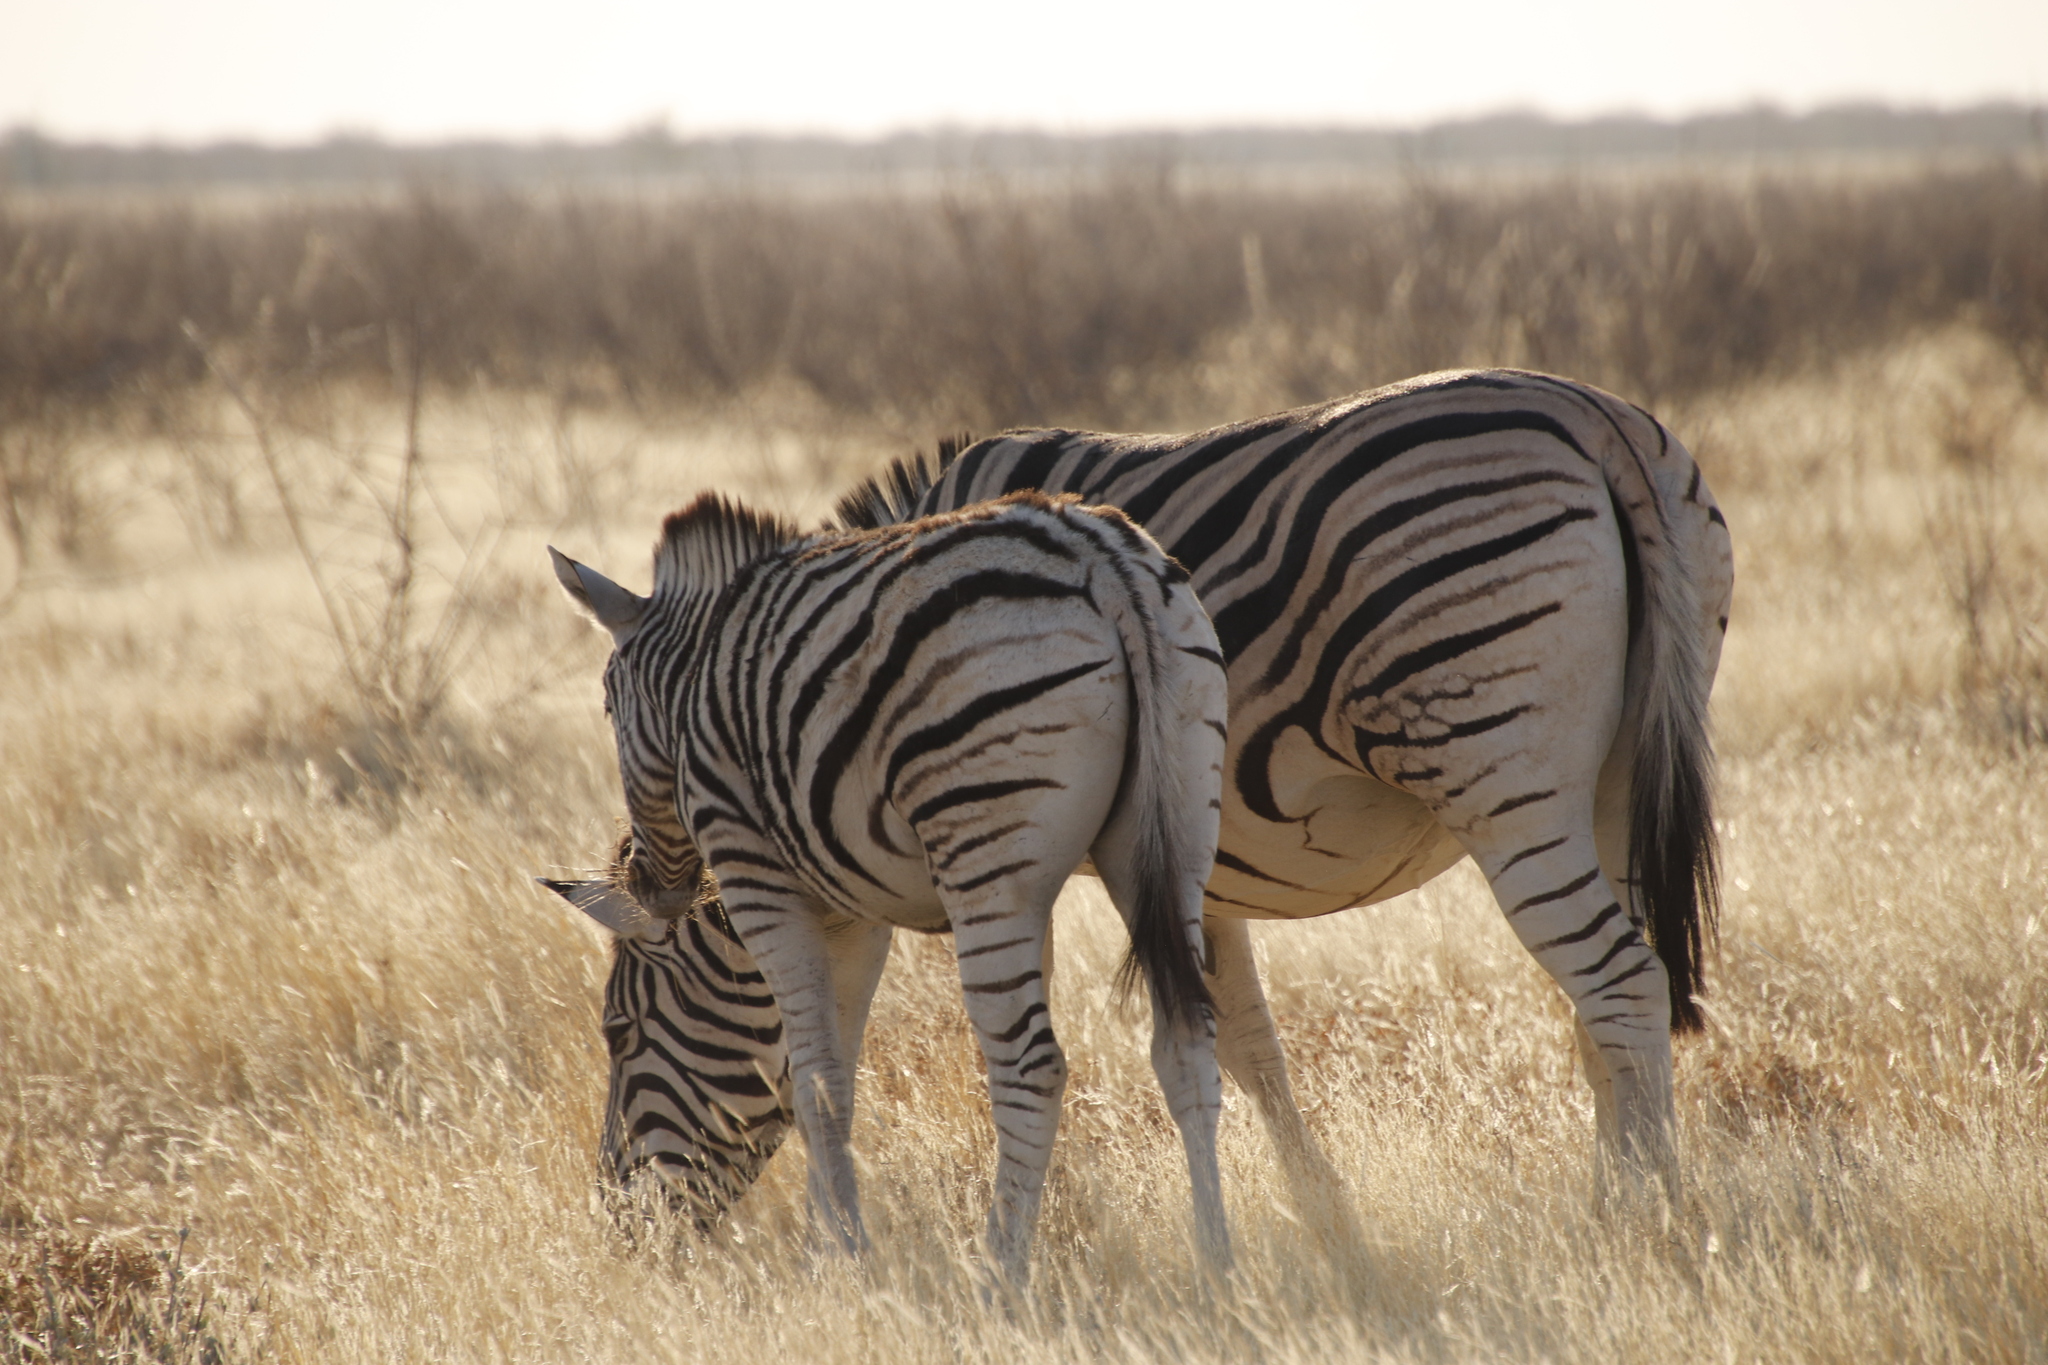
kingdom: Animalia
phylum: Chordata
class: Mammalia
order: Perissodactyla
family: Equidae
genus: Equus
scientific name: Equus quagga
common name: Plains zebra
